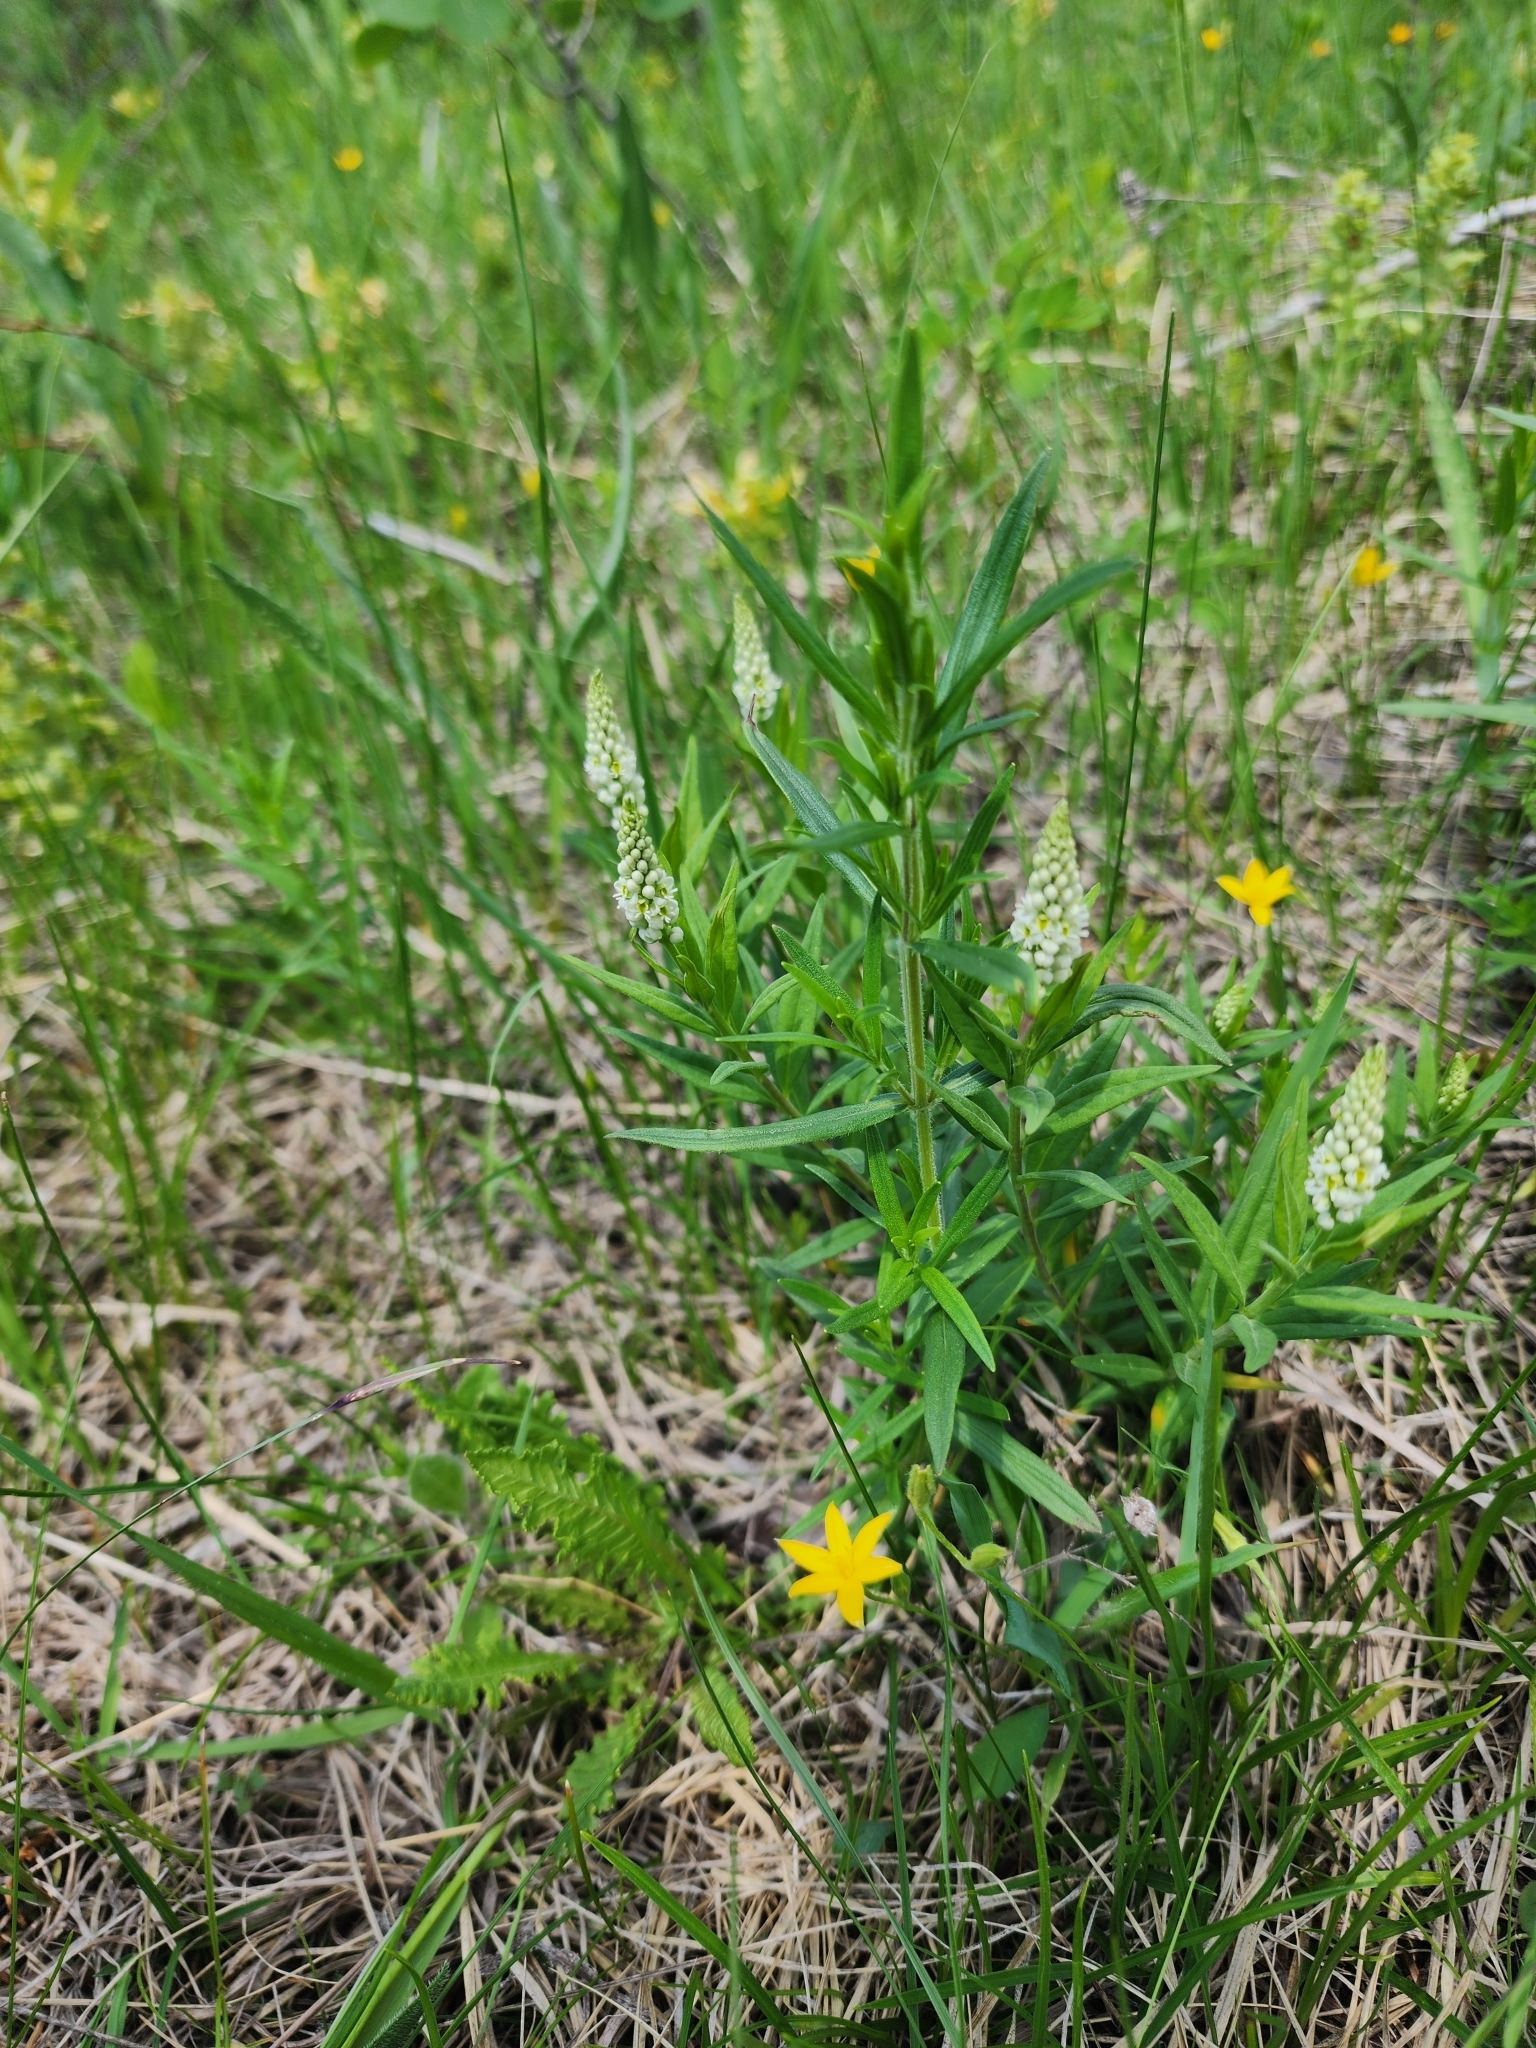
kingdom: Plantae
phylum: Tracheophyta
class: Magnoliopsida
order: Fabales
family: Polygalaceae
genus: Polygala
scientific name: Polygala senega
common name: Seneca snakeroot
